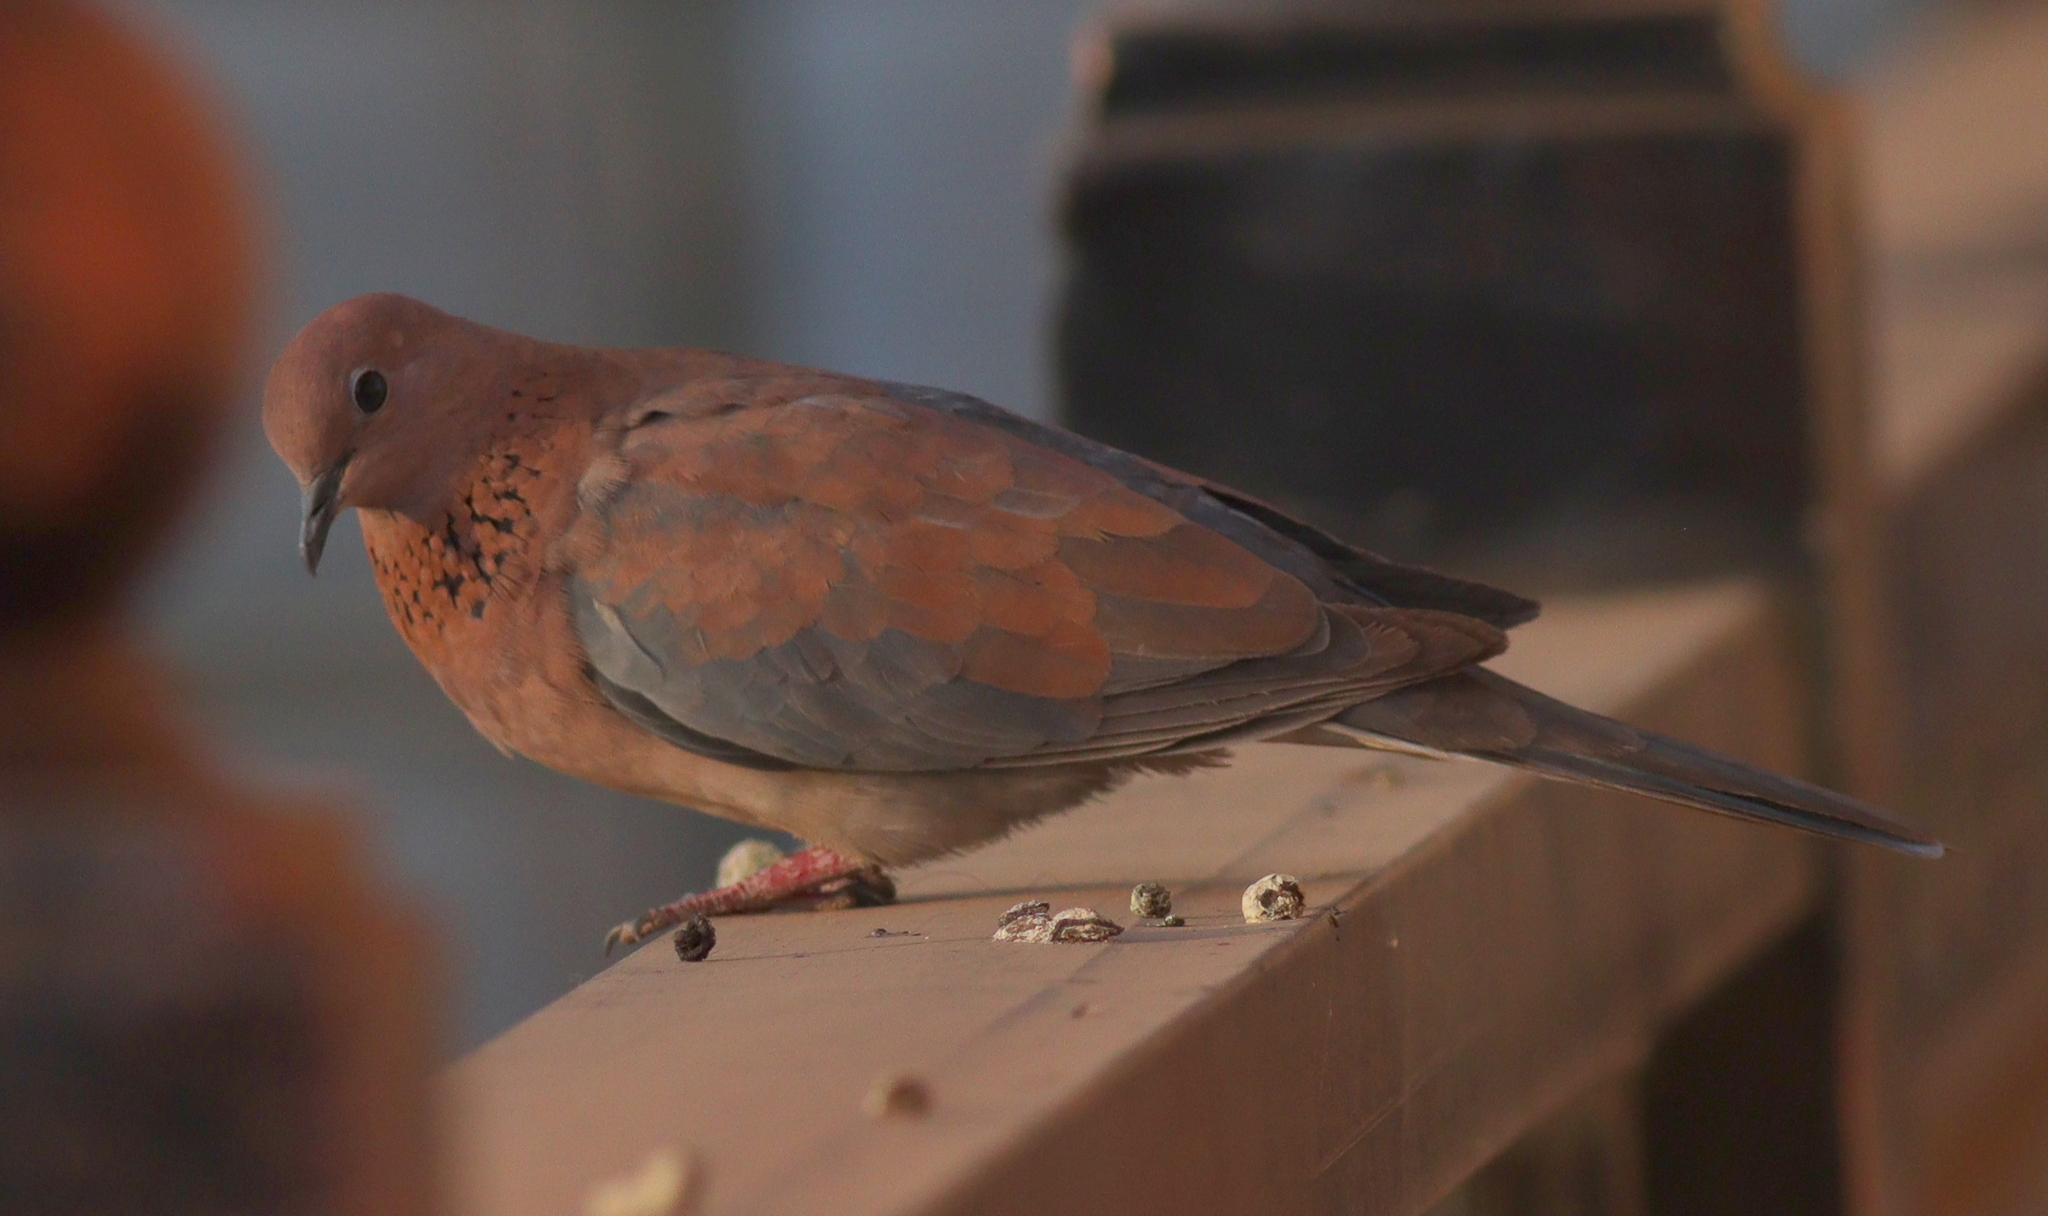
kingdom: Animalia
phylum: Chordata
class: Aves
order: Columbiformes
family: Columbidae
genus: Spilopelia
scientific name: Spilopelia senegalensis
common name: Laughing dove
